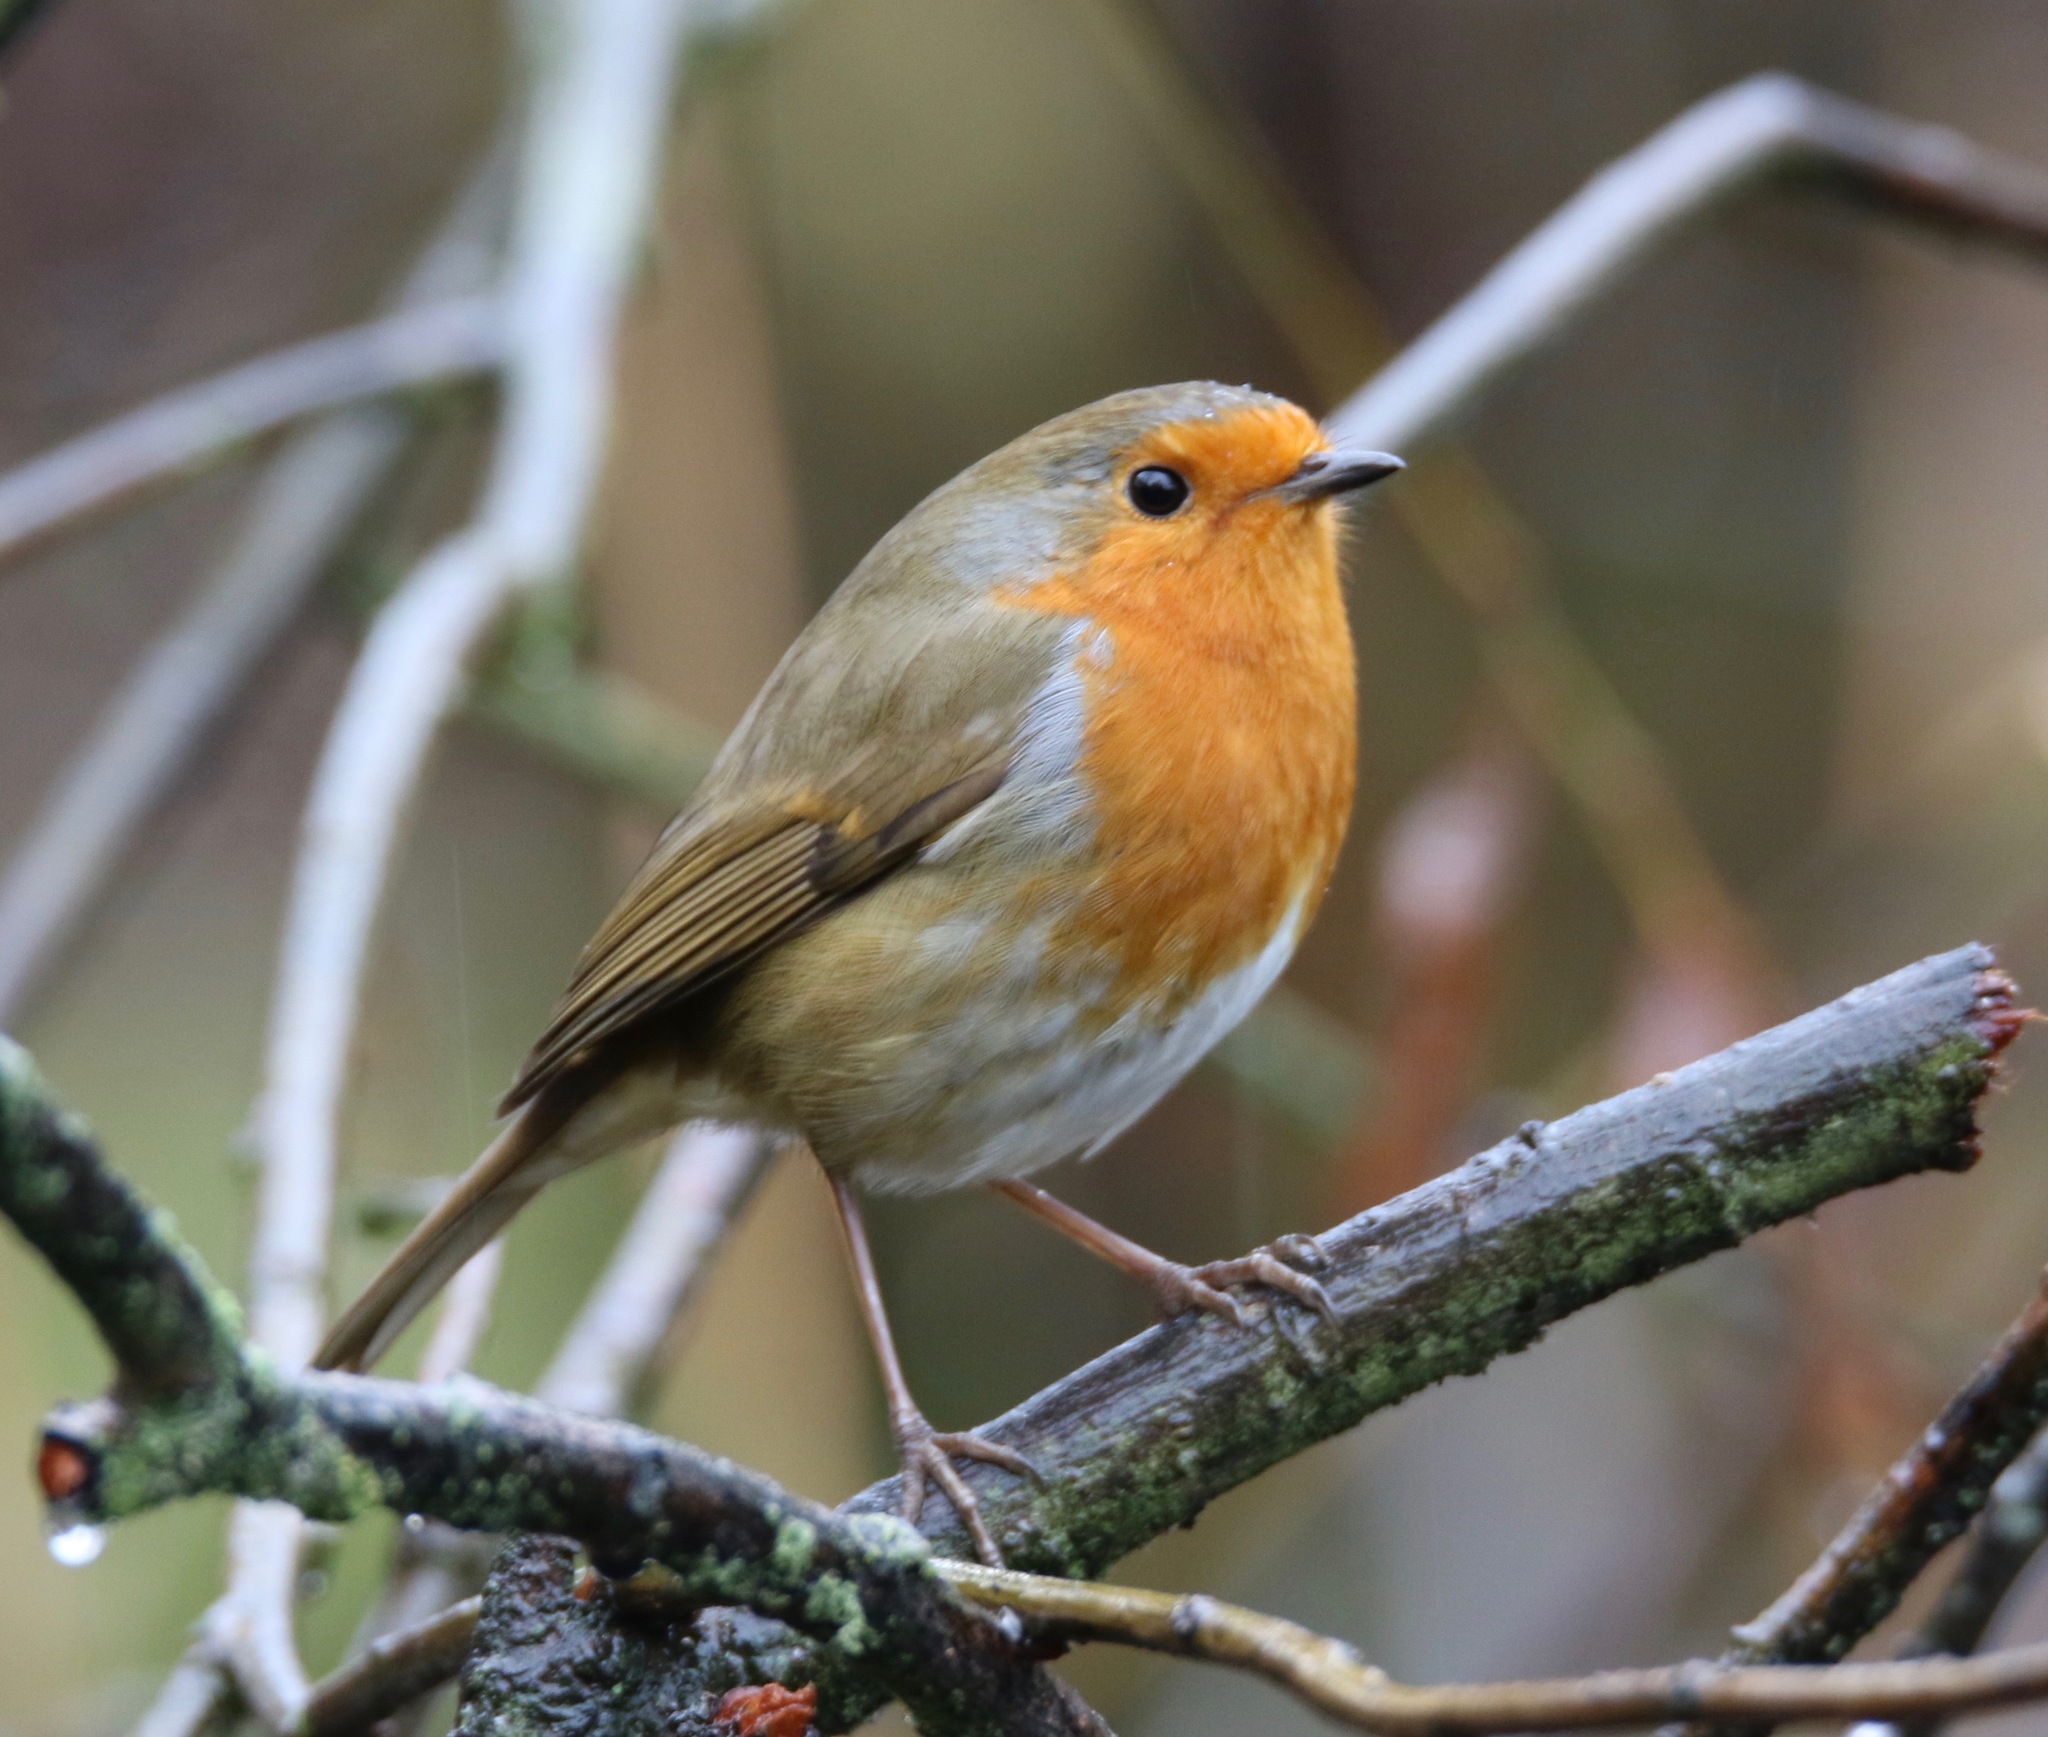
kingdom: Animalia
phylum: Chordata
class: Aves
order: Passeriformes
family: Muscicapidae
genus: Erithacus
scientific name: Erithacus rubecula
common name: European robin
